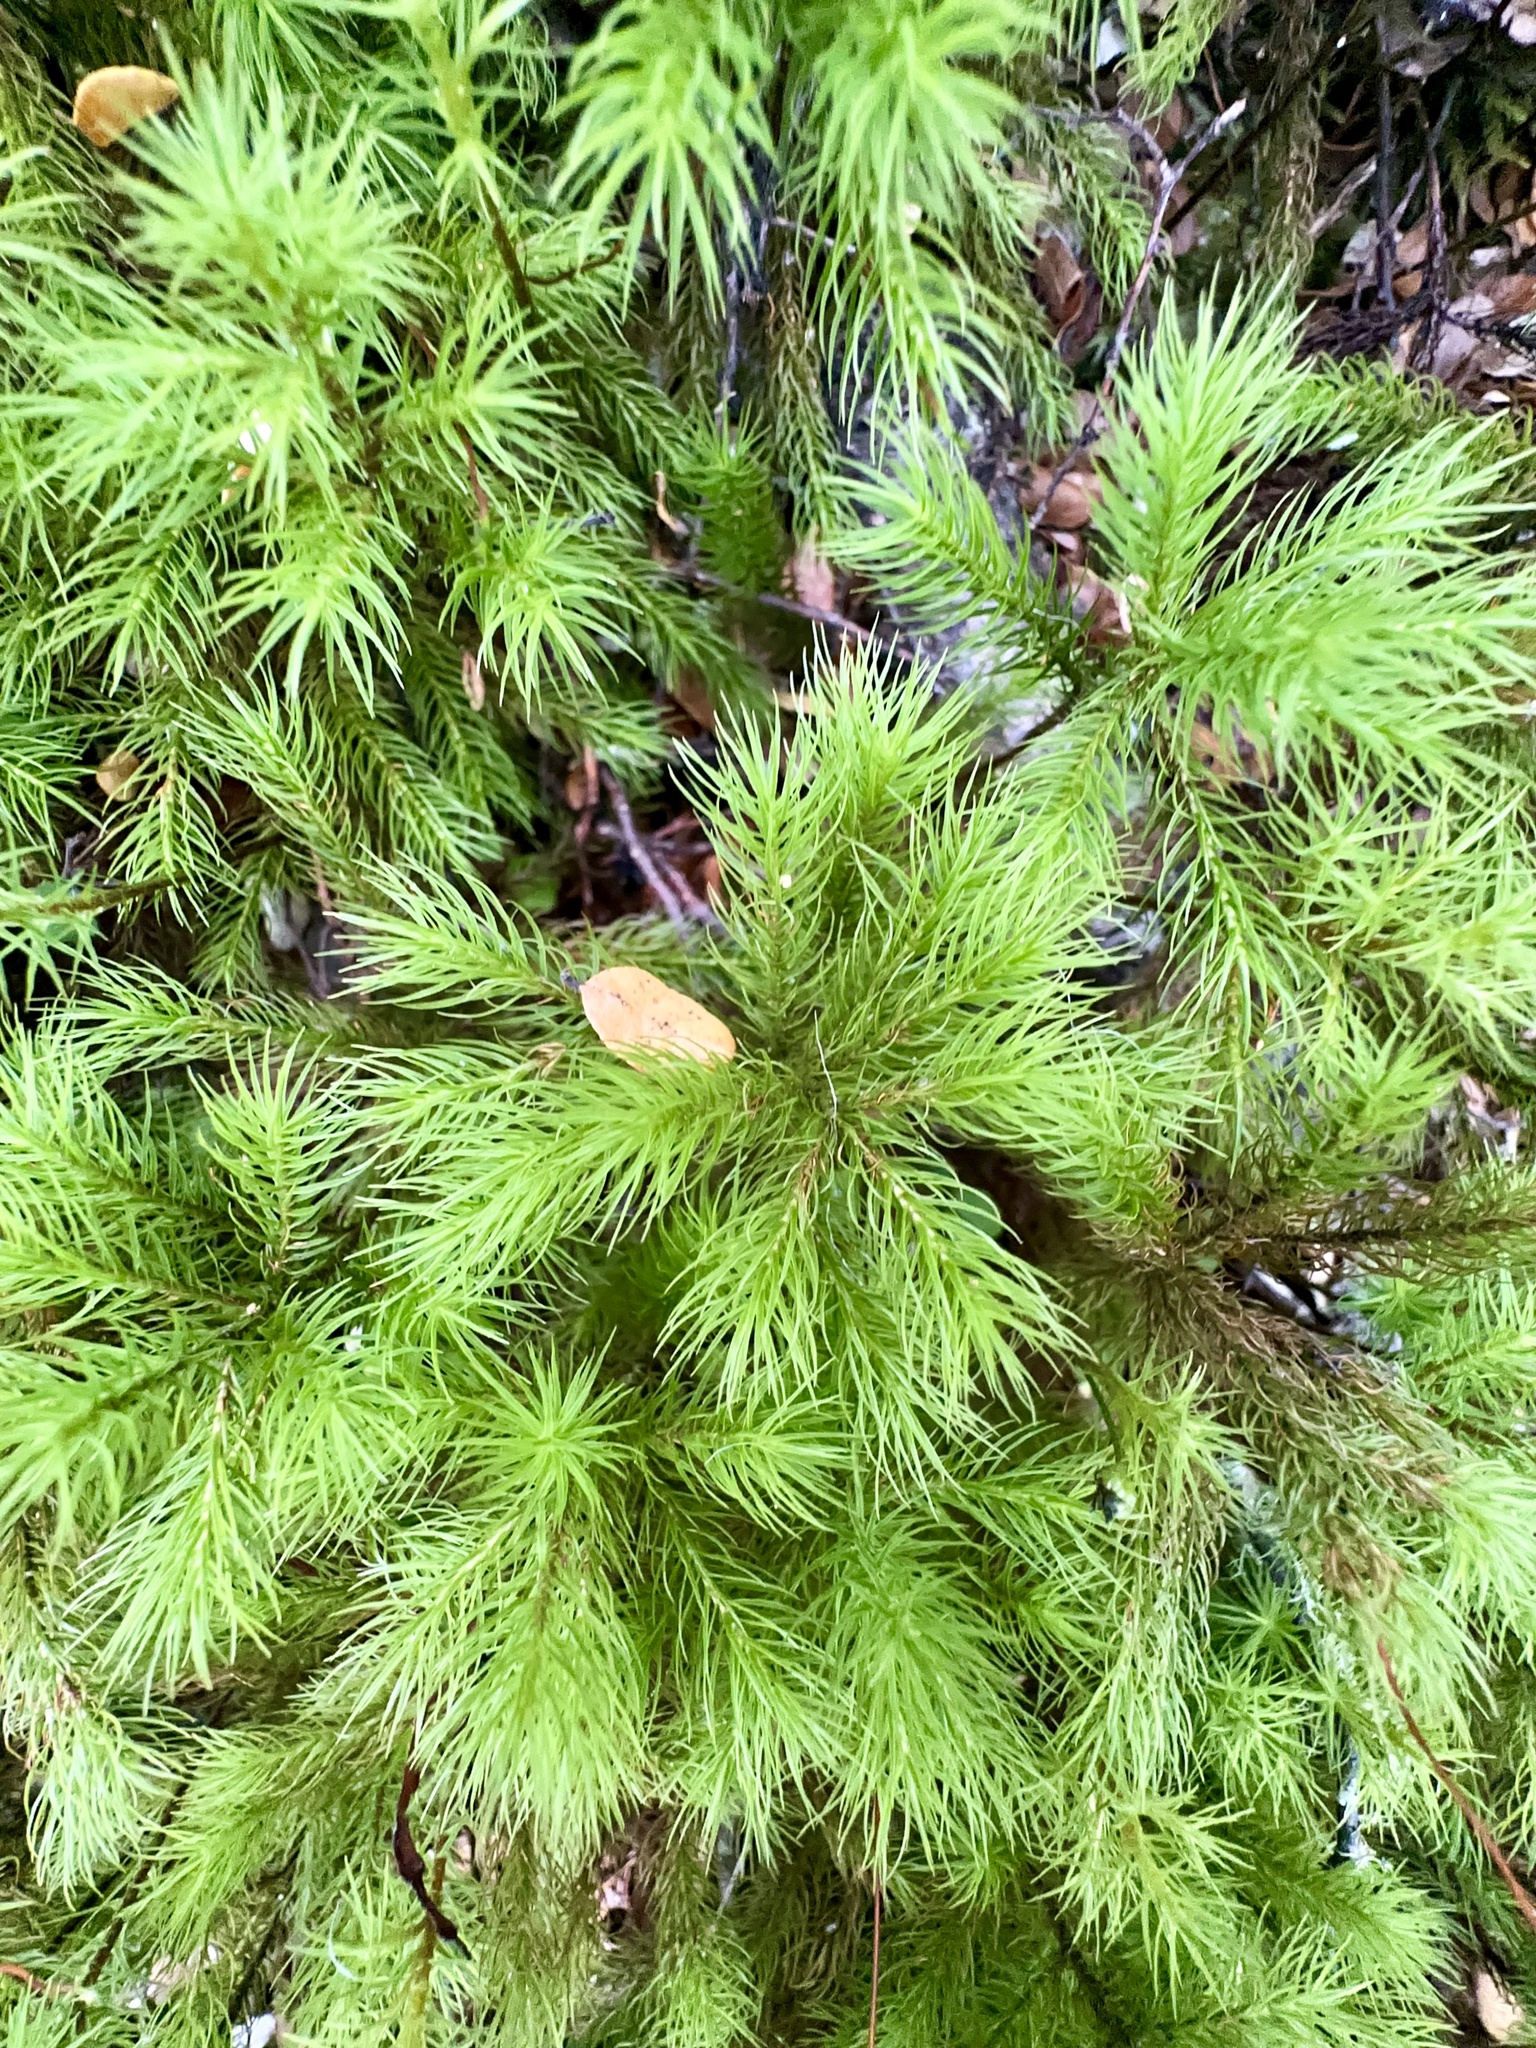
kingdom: Plantae
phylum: Bryophyta
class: Polytrichopsida
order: Polytrichales
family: Polytrichaceae
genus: Dendroligotrichum
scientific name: Dendroligotrichum tongariroense
